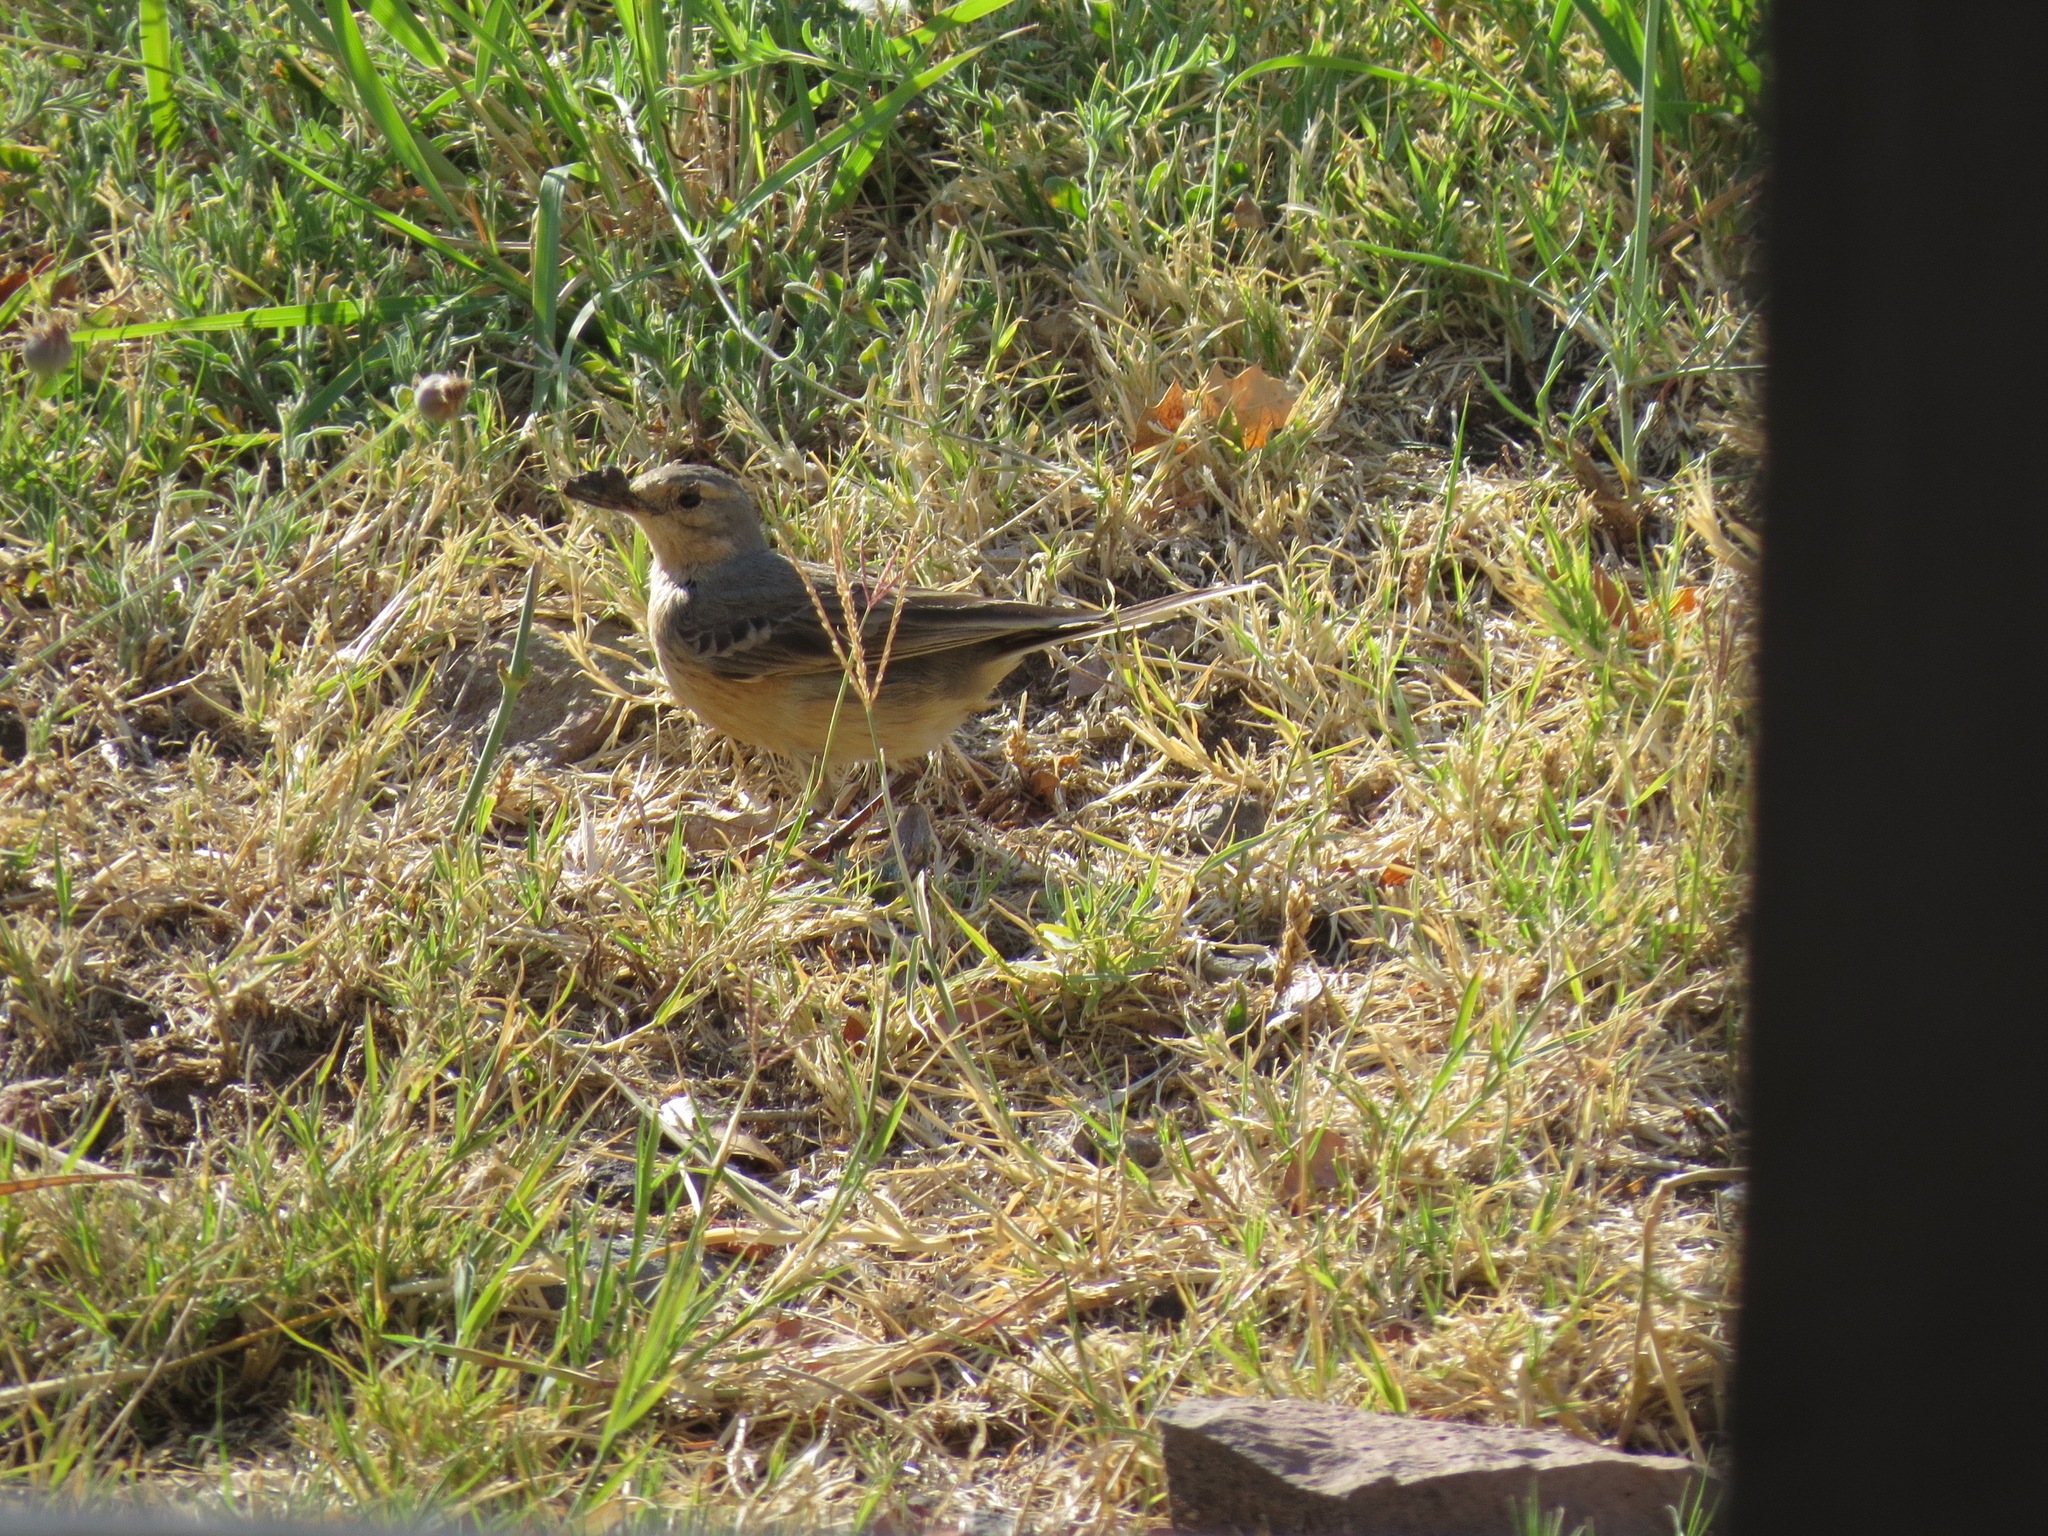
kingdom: Animalia
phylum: Chordata
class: Aves
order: Passeriformes
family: Motacillidae
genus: Anthus
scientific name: Anthus rubescens
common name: Buff-bellied pipit
